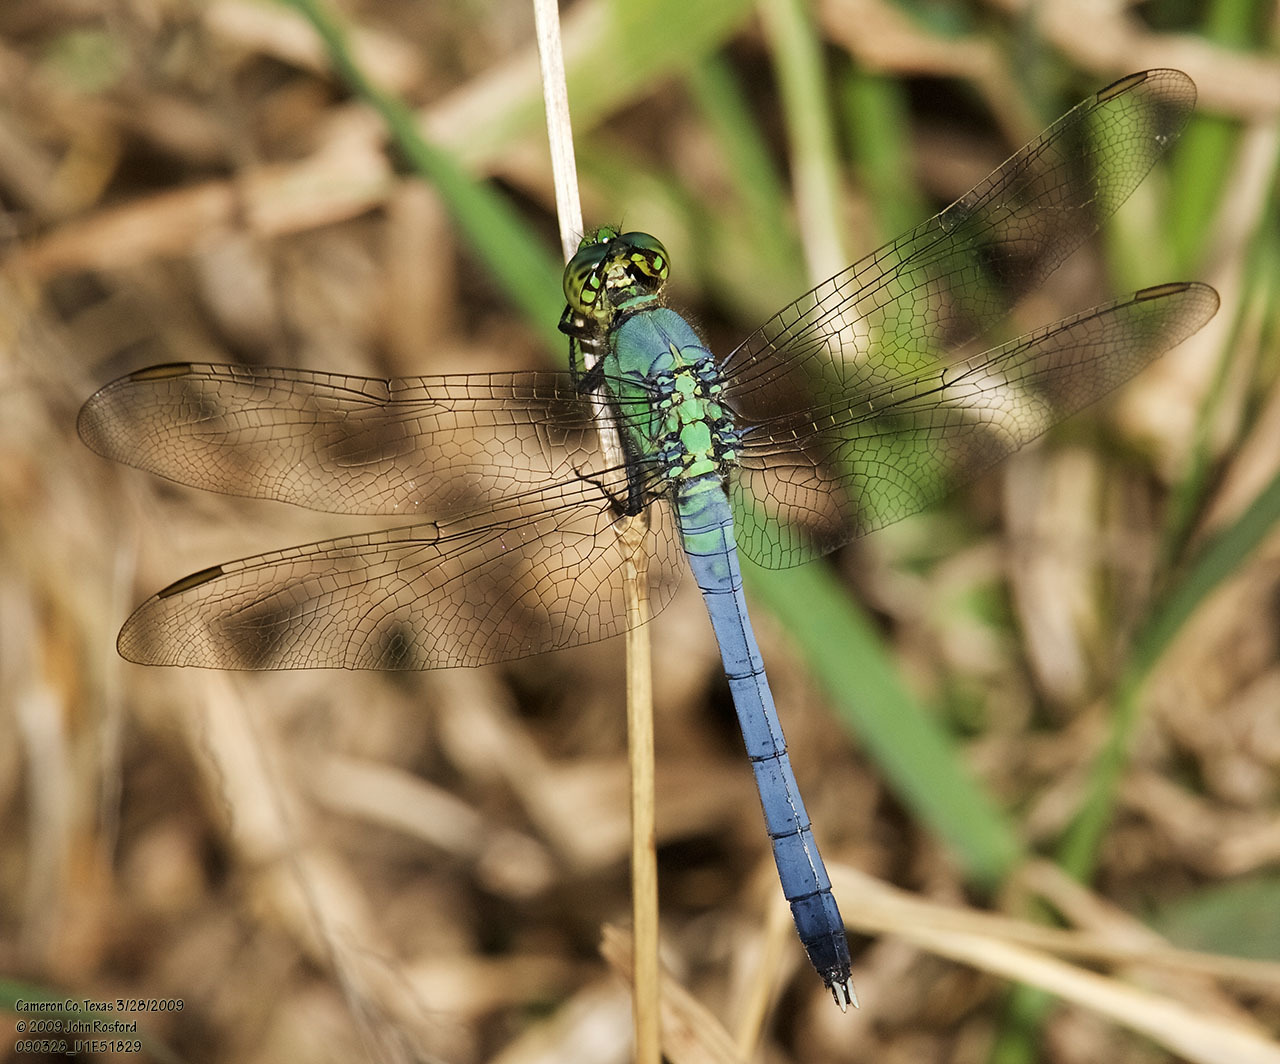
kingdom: Animalia
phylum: Arthropoda
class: Insecta
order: Odonata
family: Libellulidae
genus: Erythemis
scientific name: Erythemis simplicicollis
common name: Eastern pondhawk
